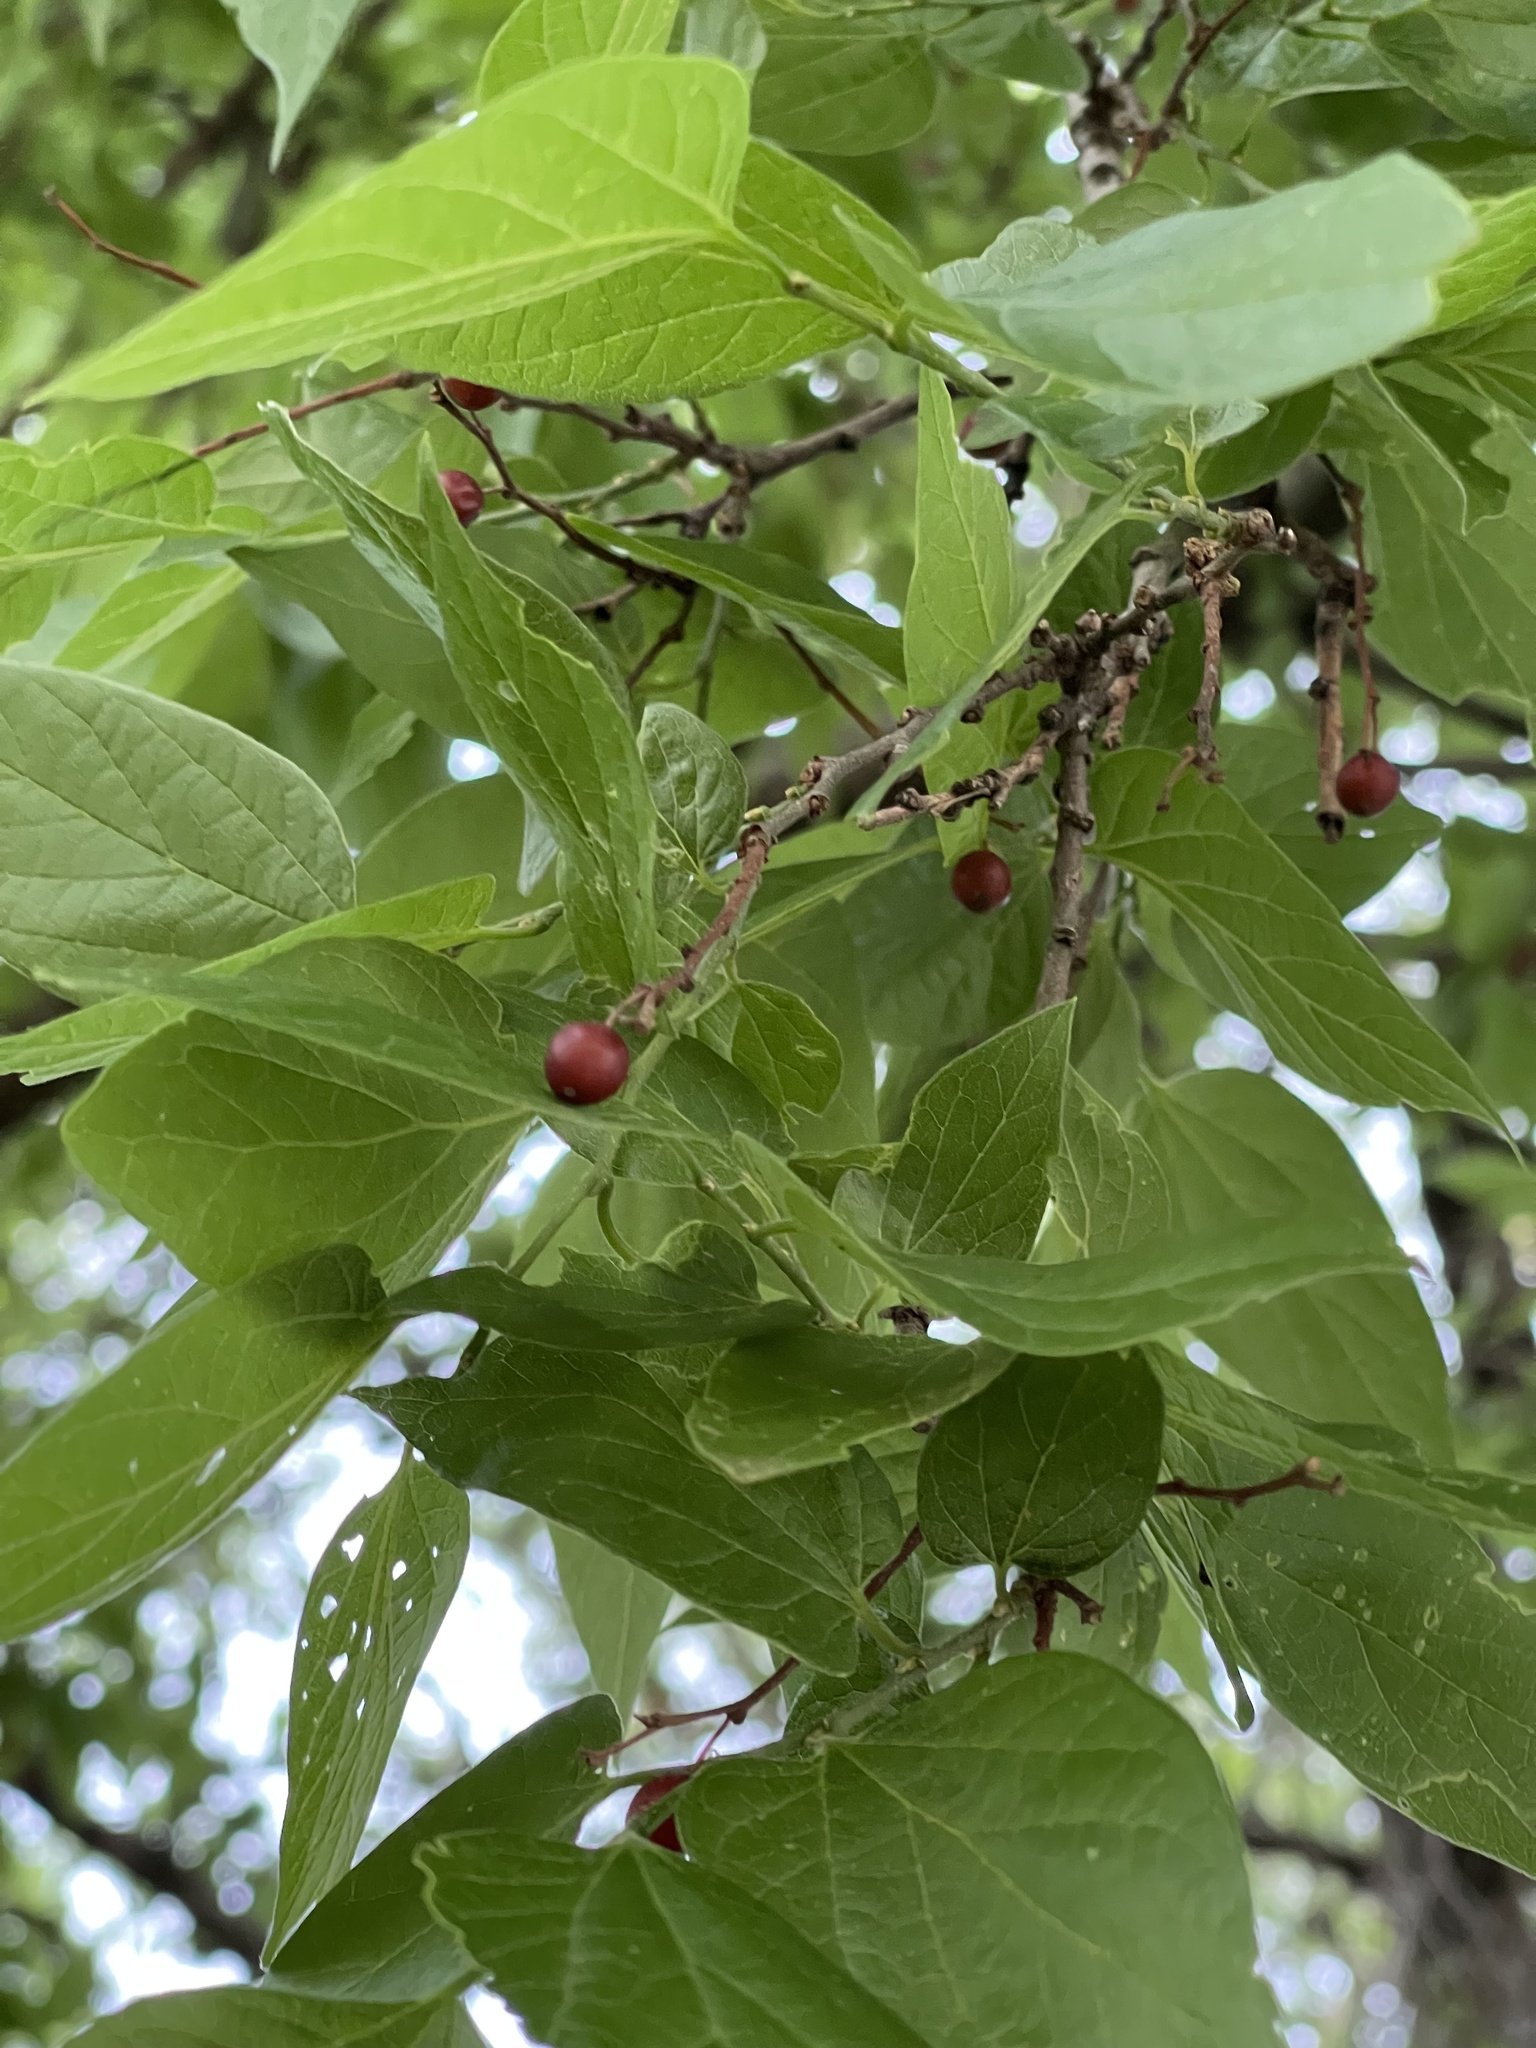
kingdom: Plantae
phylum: Tracheophyta
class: Magnoliopsida
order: Rosales
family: Cannabaceae
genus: Celtis
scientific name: Celtis laevigata
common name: Sugarberry
